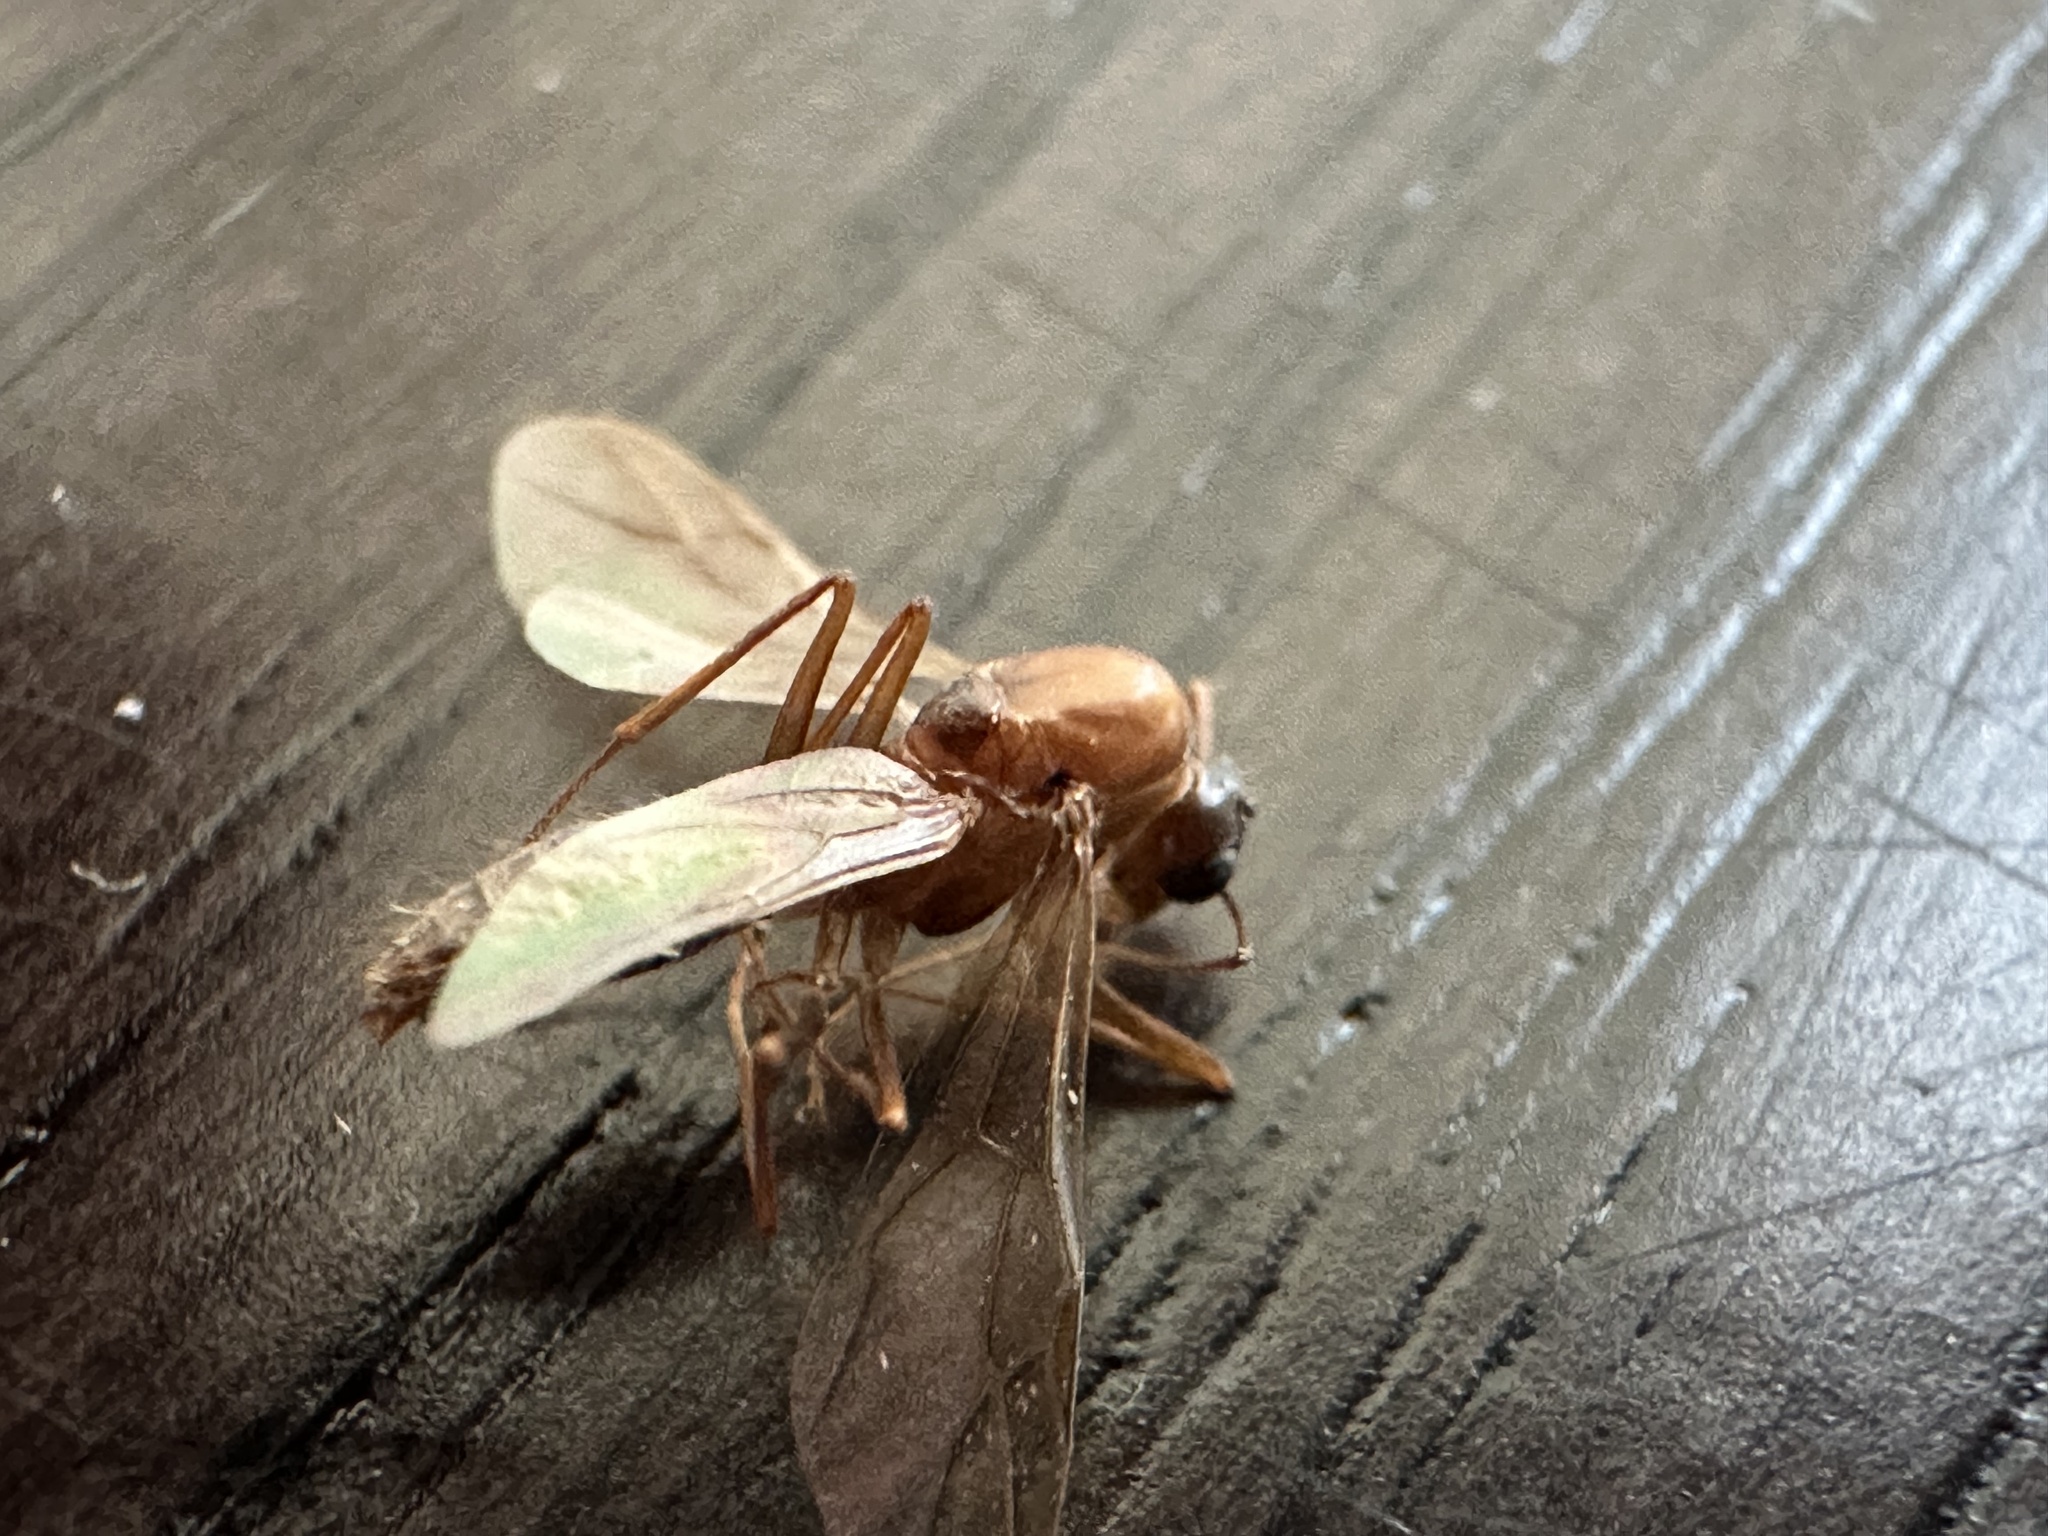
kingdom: Animalia
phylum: Arthropoda
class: Insecta
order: Hymenoptera
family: Formicidae
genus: Camponotus
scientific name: Camponotus variegatus
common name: Hawaiian carpenter ant
